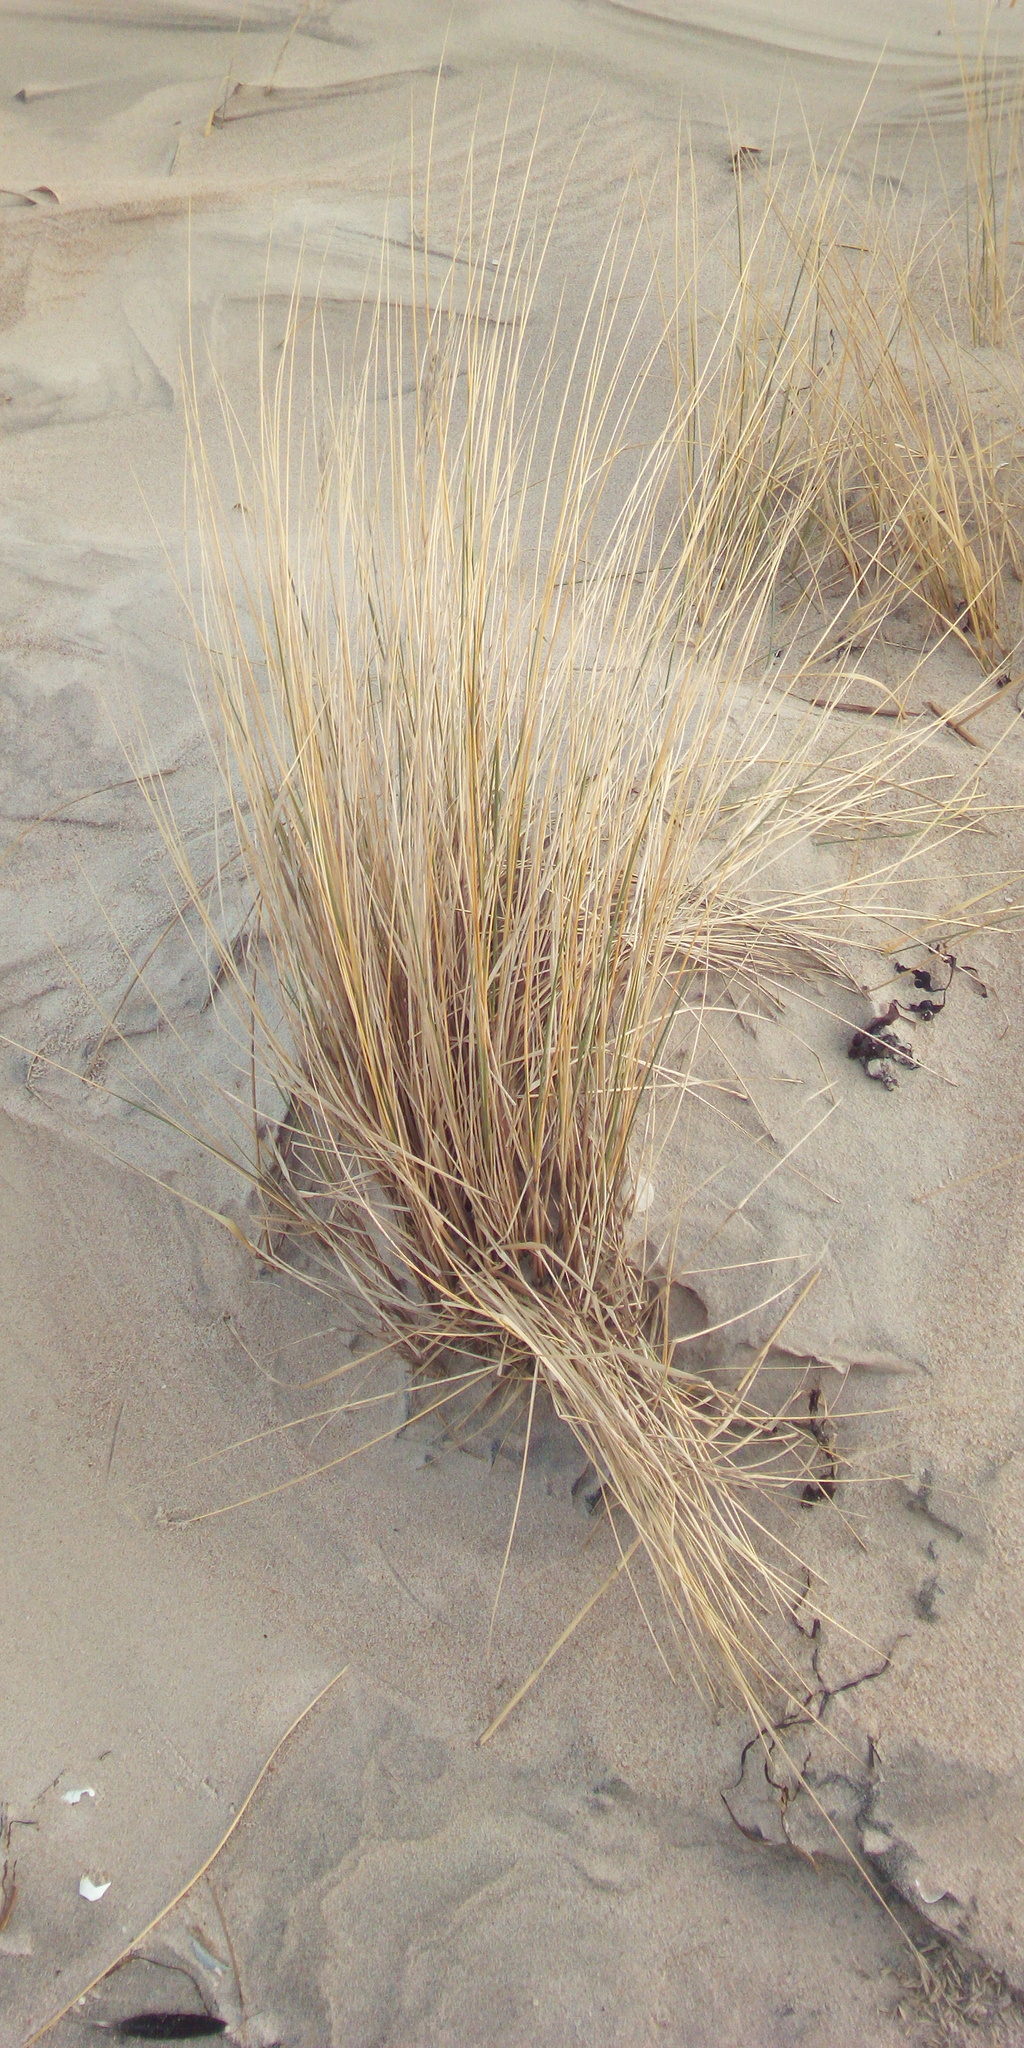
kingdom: Plantae
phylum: Tracheophyta
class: Liliopsida
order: Poales
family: Poaceae
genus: Calamagrostis
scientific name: Calamagrostis arenaria
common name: European beachgrass
